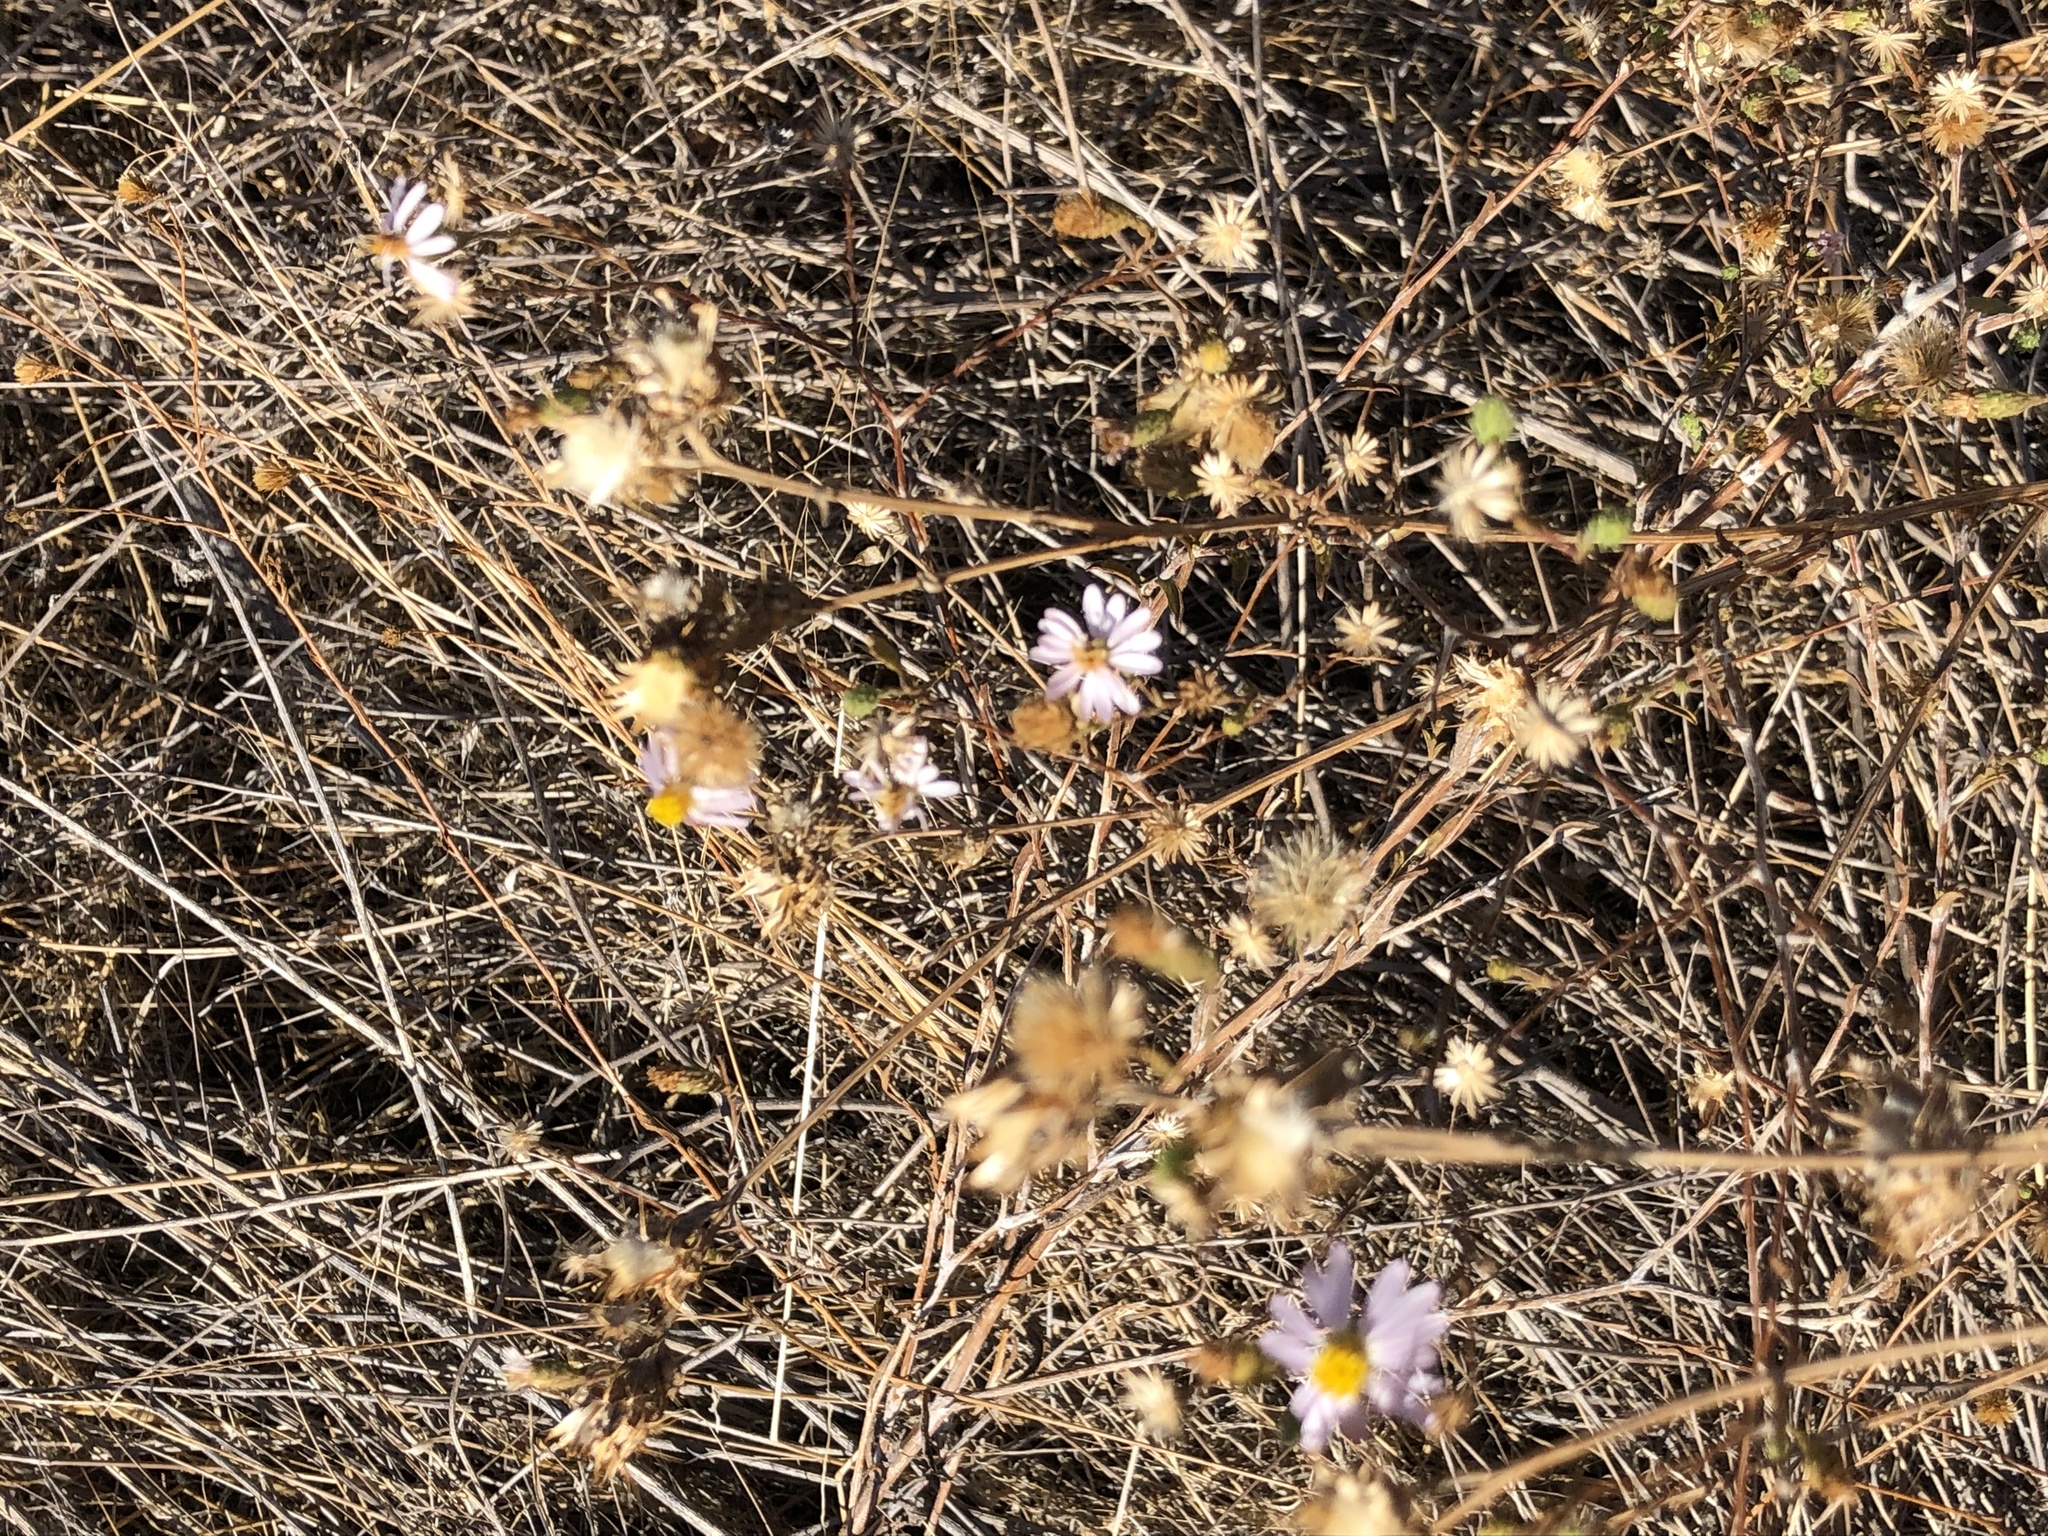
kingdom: Plantae
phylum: Tracheophyta
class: Magnoliopsida
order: Asterales
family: Asteraceae
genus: Corethrogyne
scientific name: Corethrogyne filaginifolia
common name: Sand-aster
